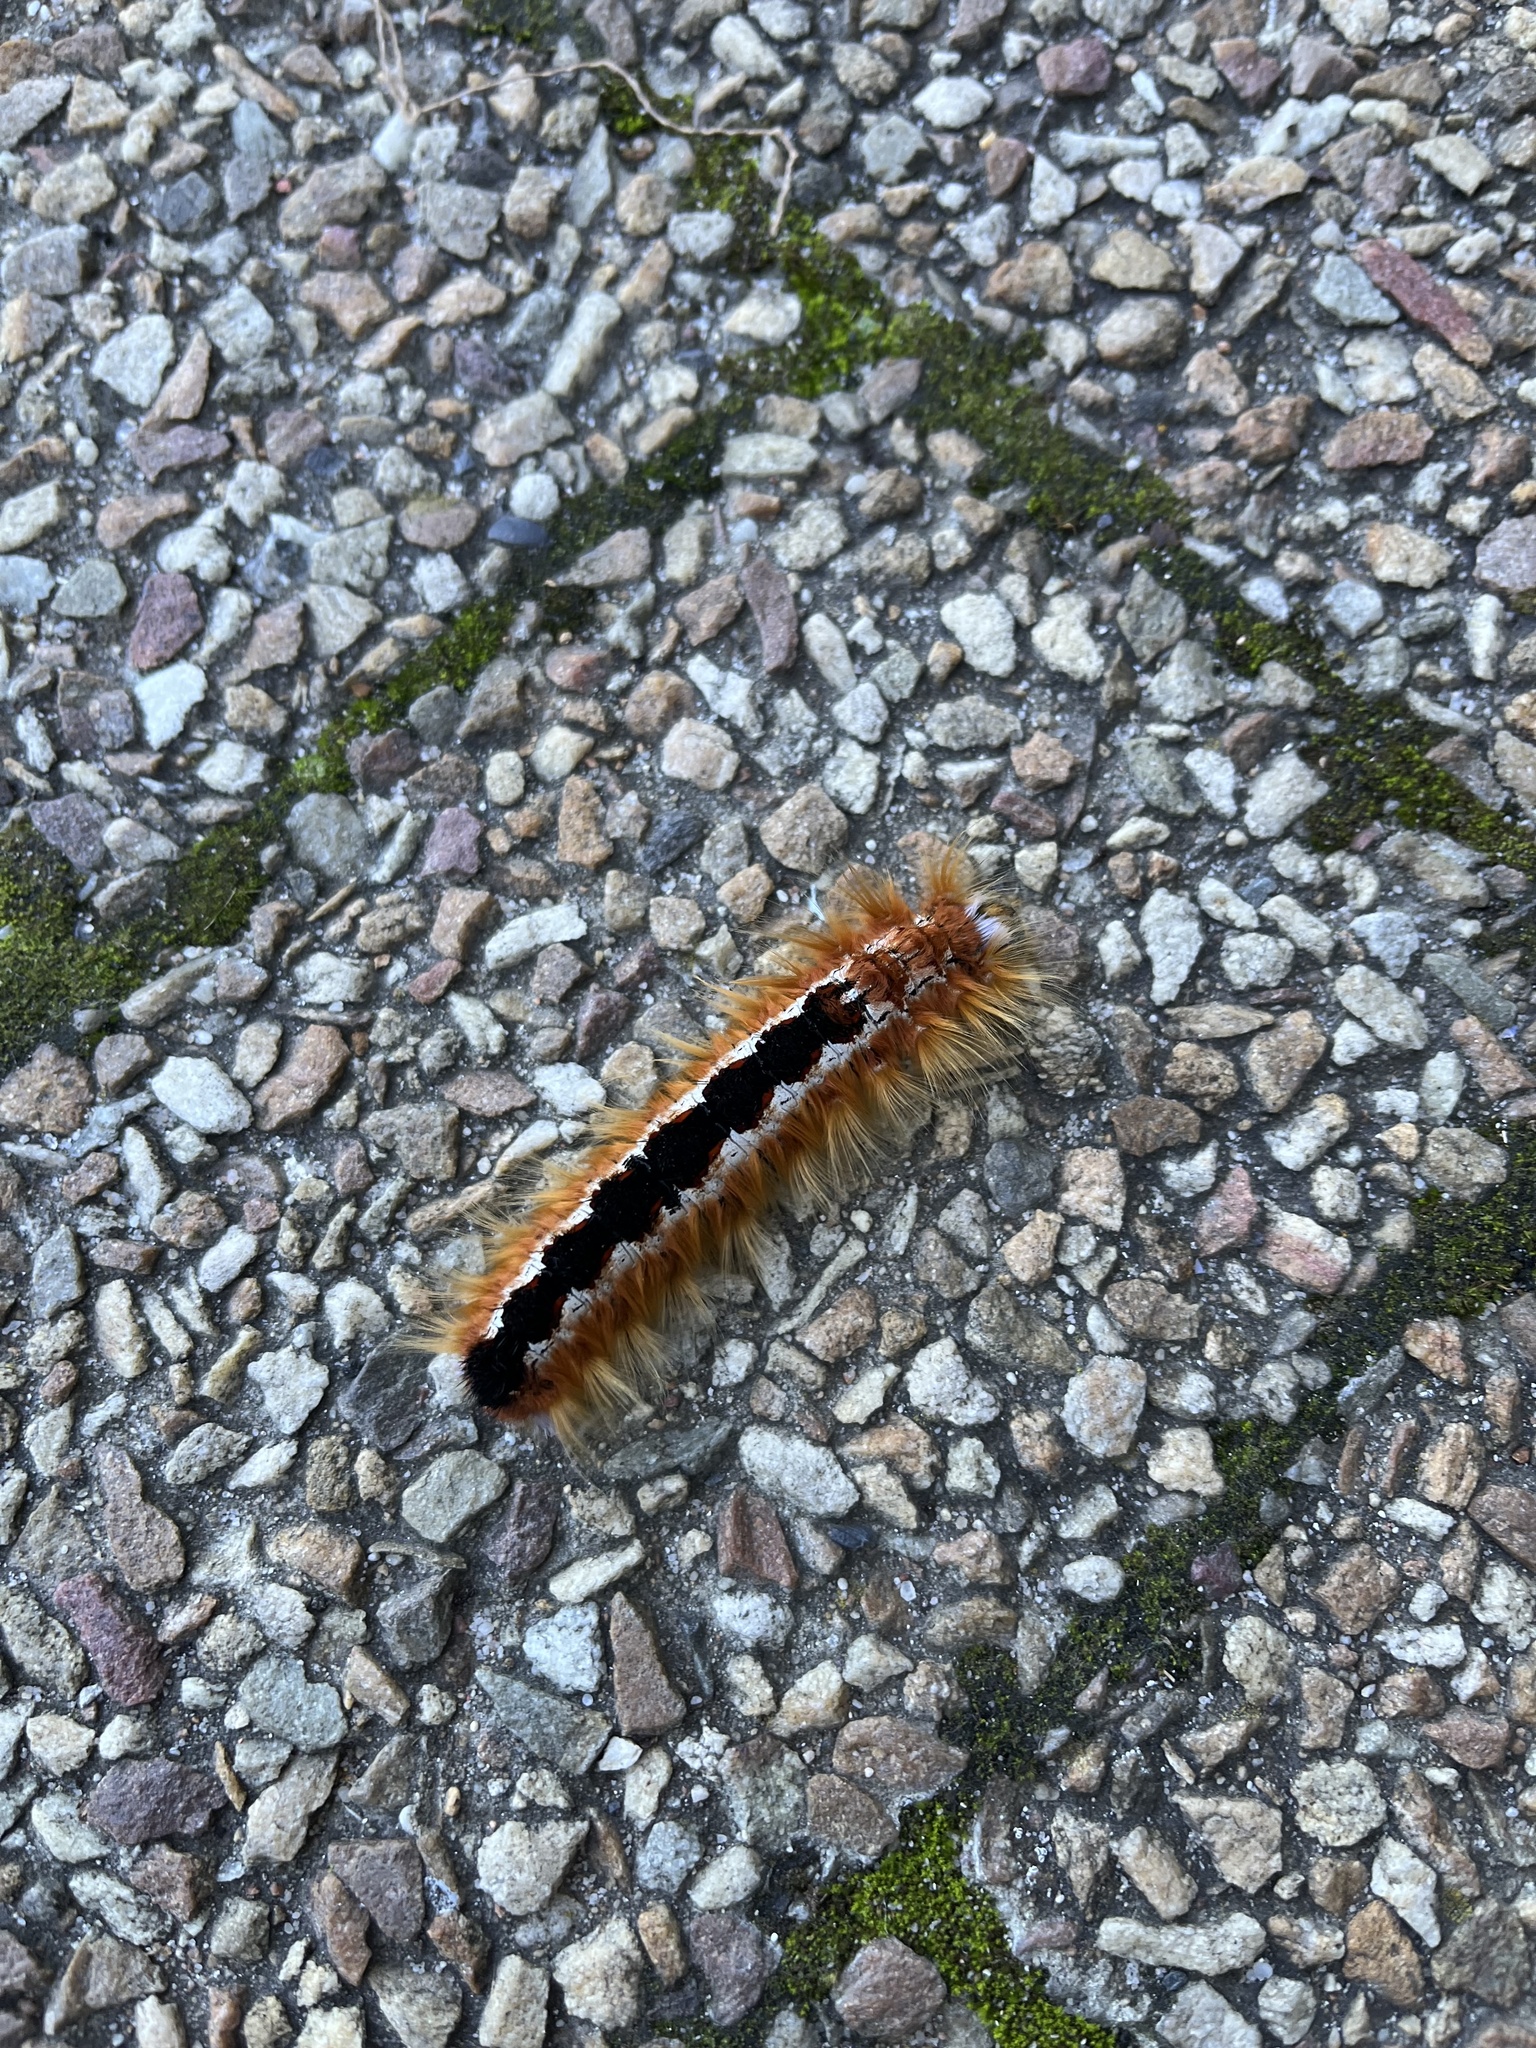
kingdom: Animalia
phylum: Arthropoda
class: Insecta
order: Lepidoptera
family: Lasiocampidae
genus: Eutricha
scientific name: Eutricha capensis
